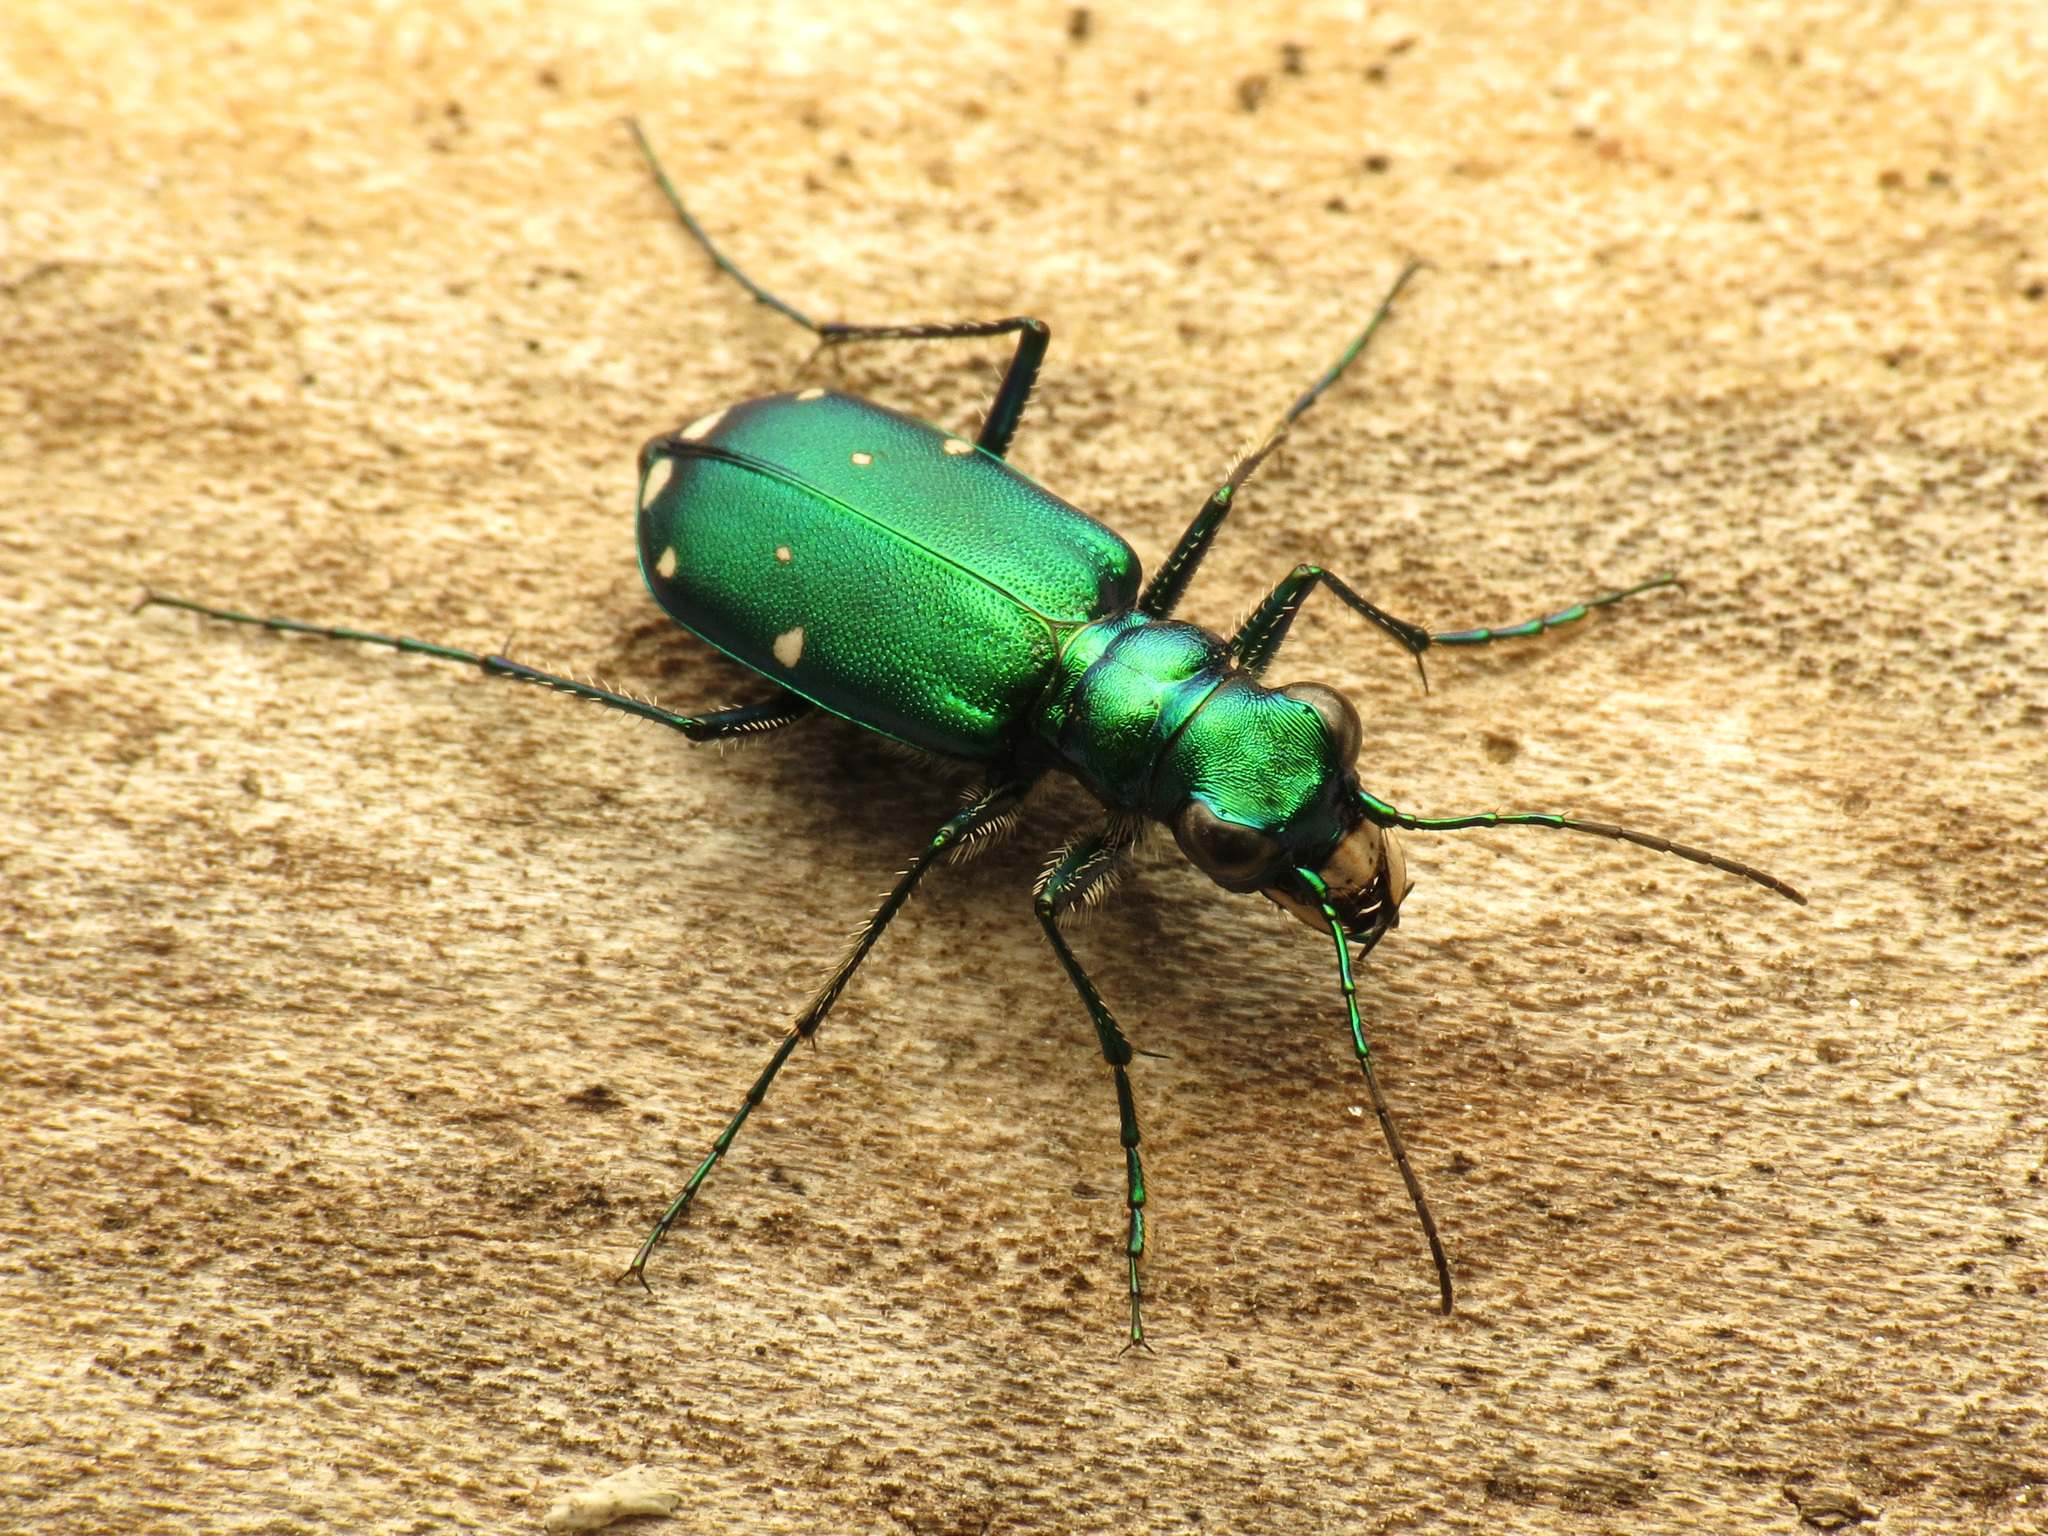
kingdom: Animalia
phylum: Arthropoda
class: Insecta
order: Coleoptera
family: Carabidae
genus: Cicindela
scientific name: Cicindela sexguttata
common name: Six-spotted tiger beetle
